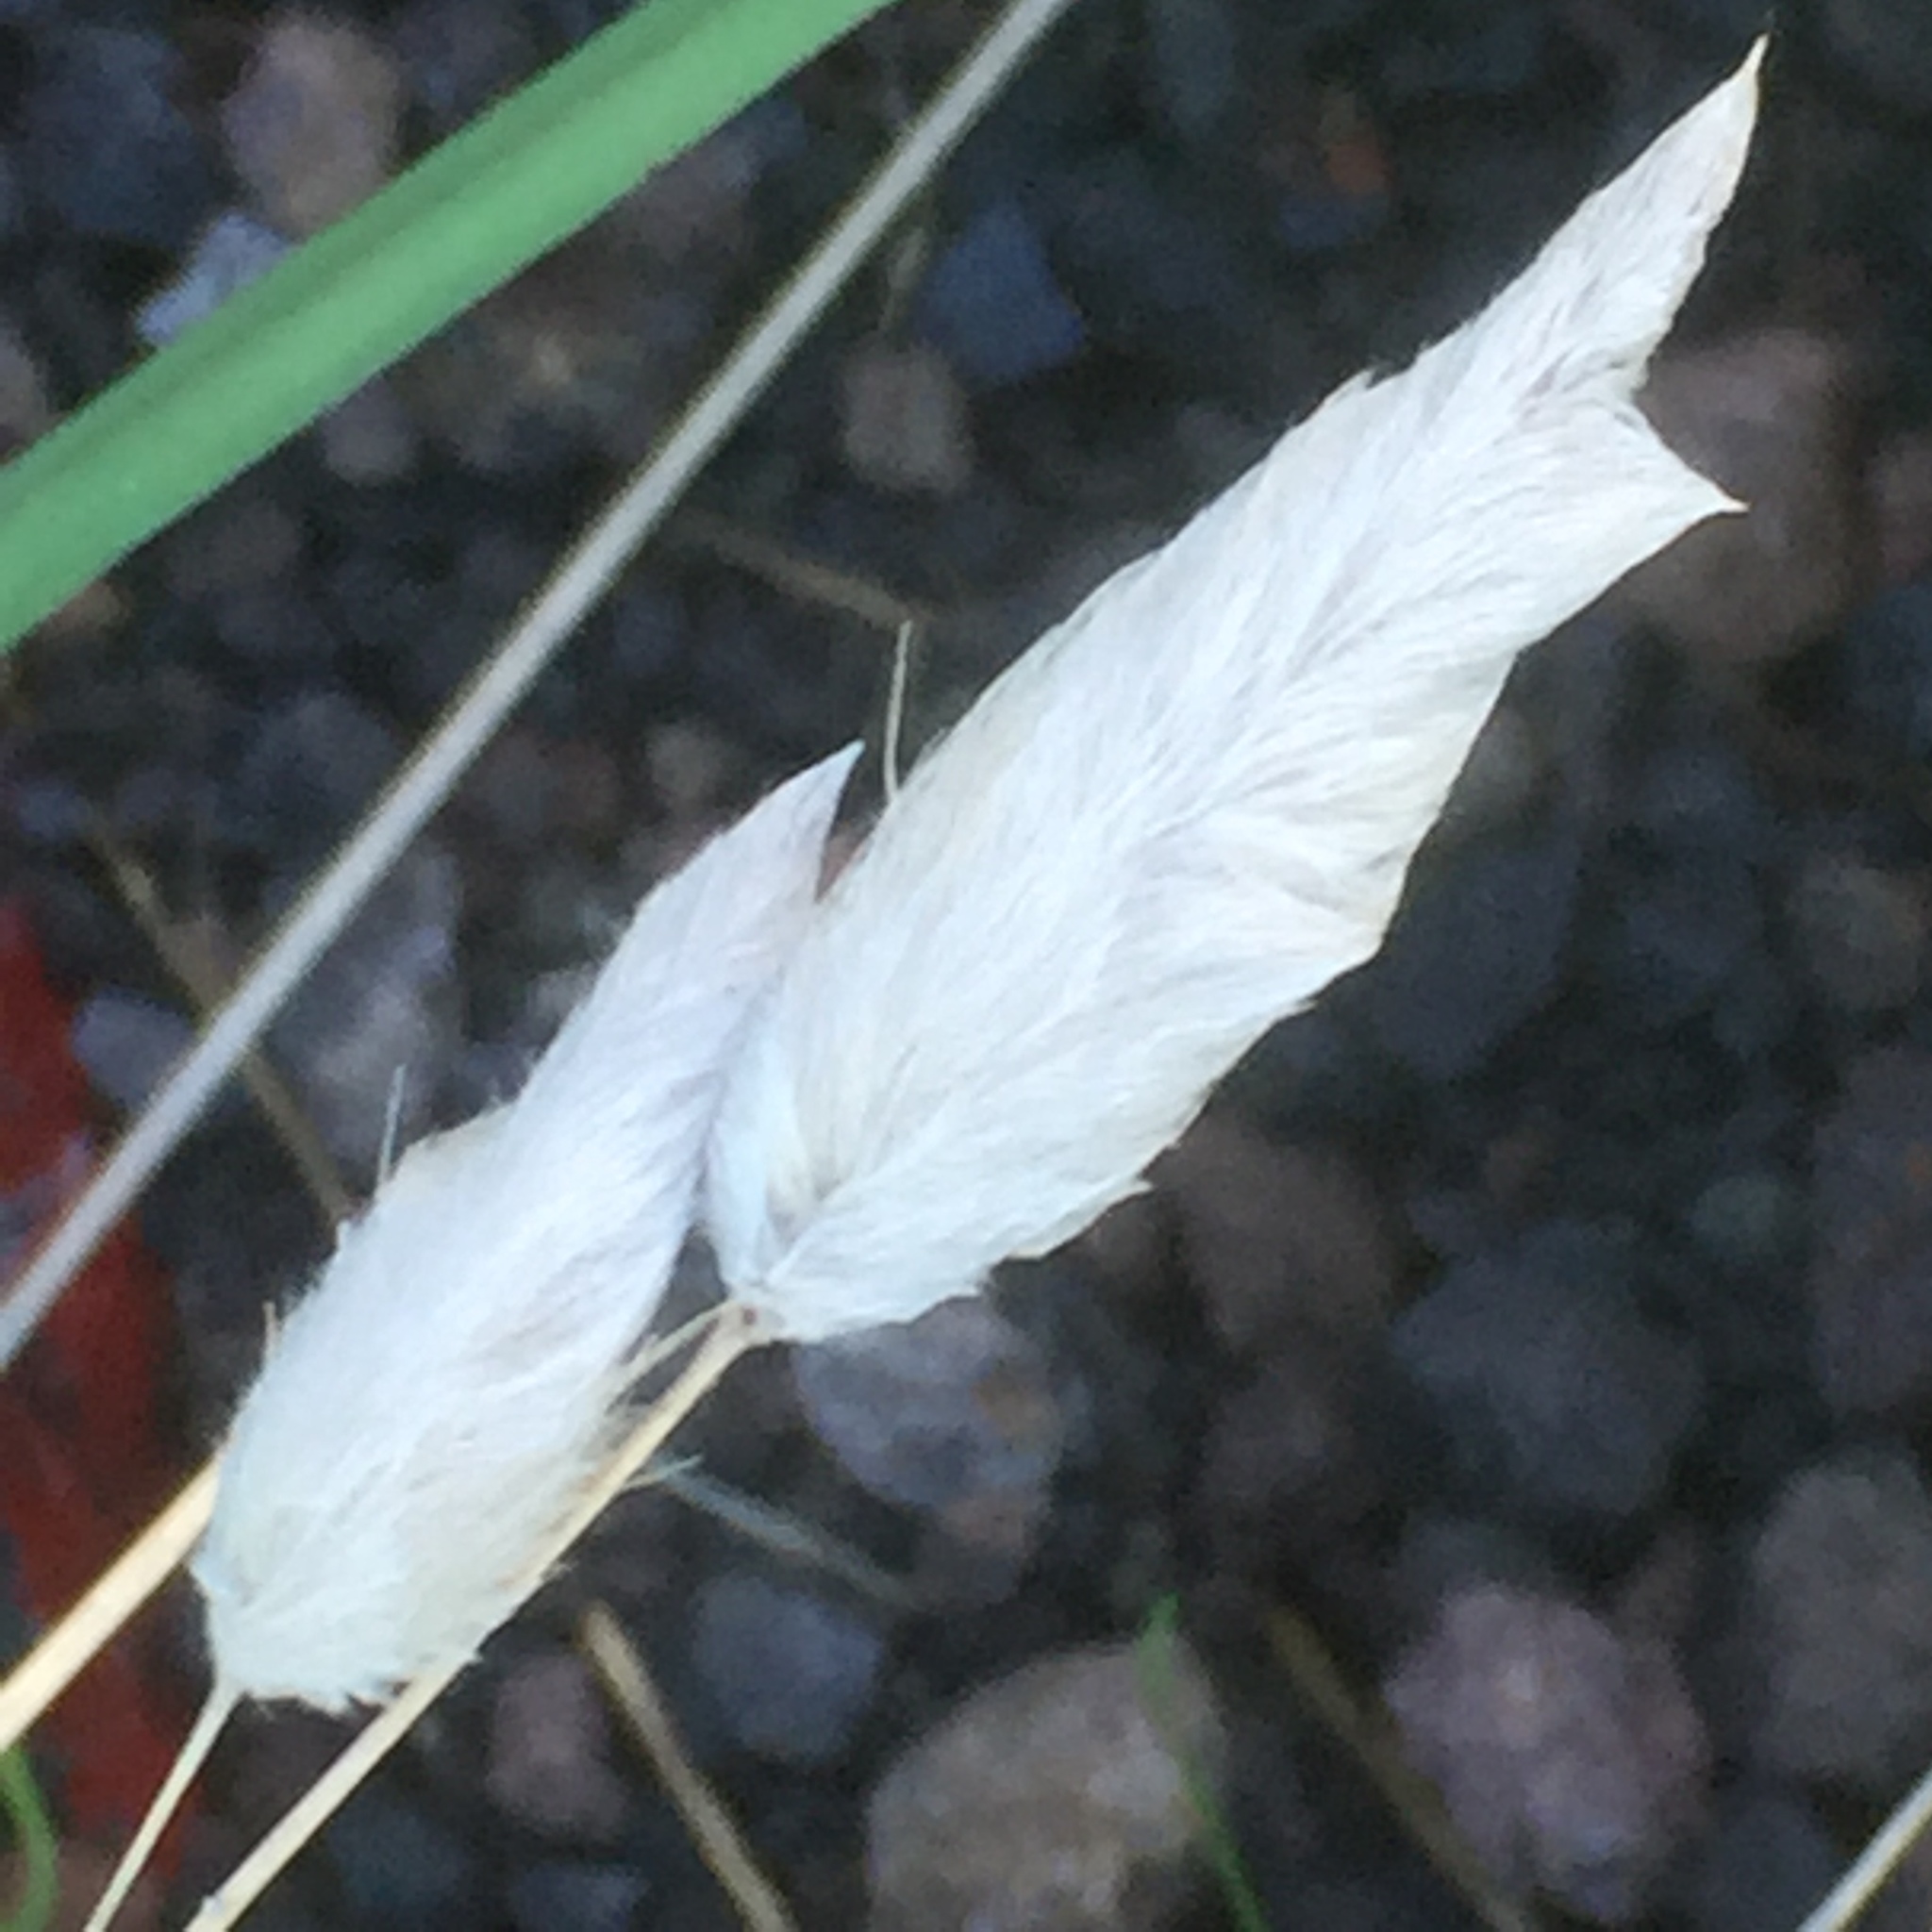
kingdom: Plantae
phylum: Tracheophyta
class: Liliopsida
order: Poales
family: Poaceae
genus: Lagurus
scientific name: Lagurus ovatus
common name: Hare's-tail
